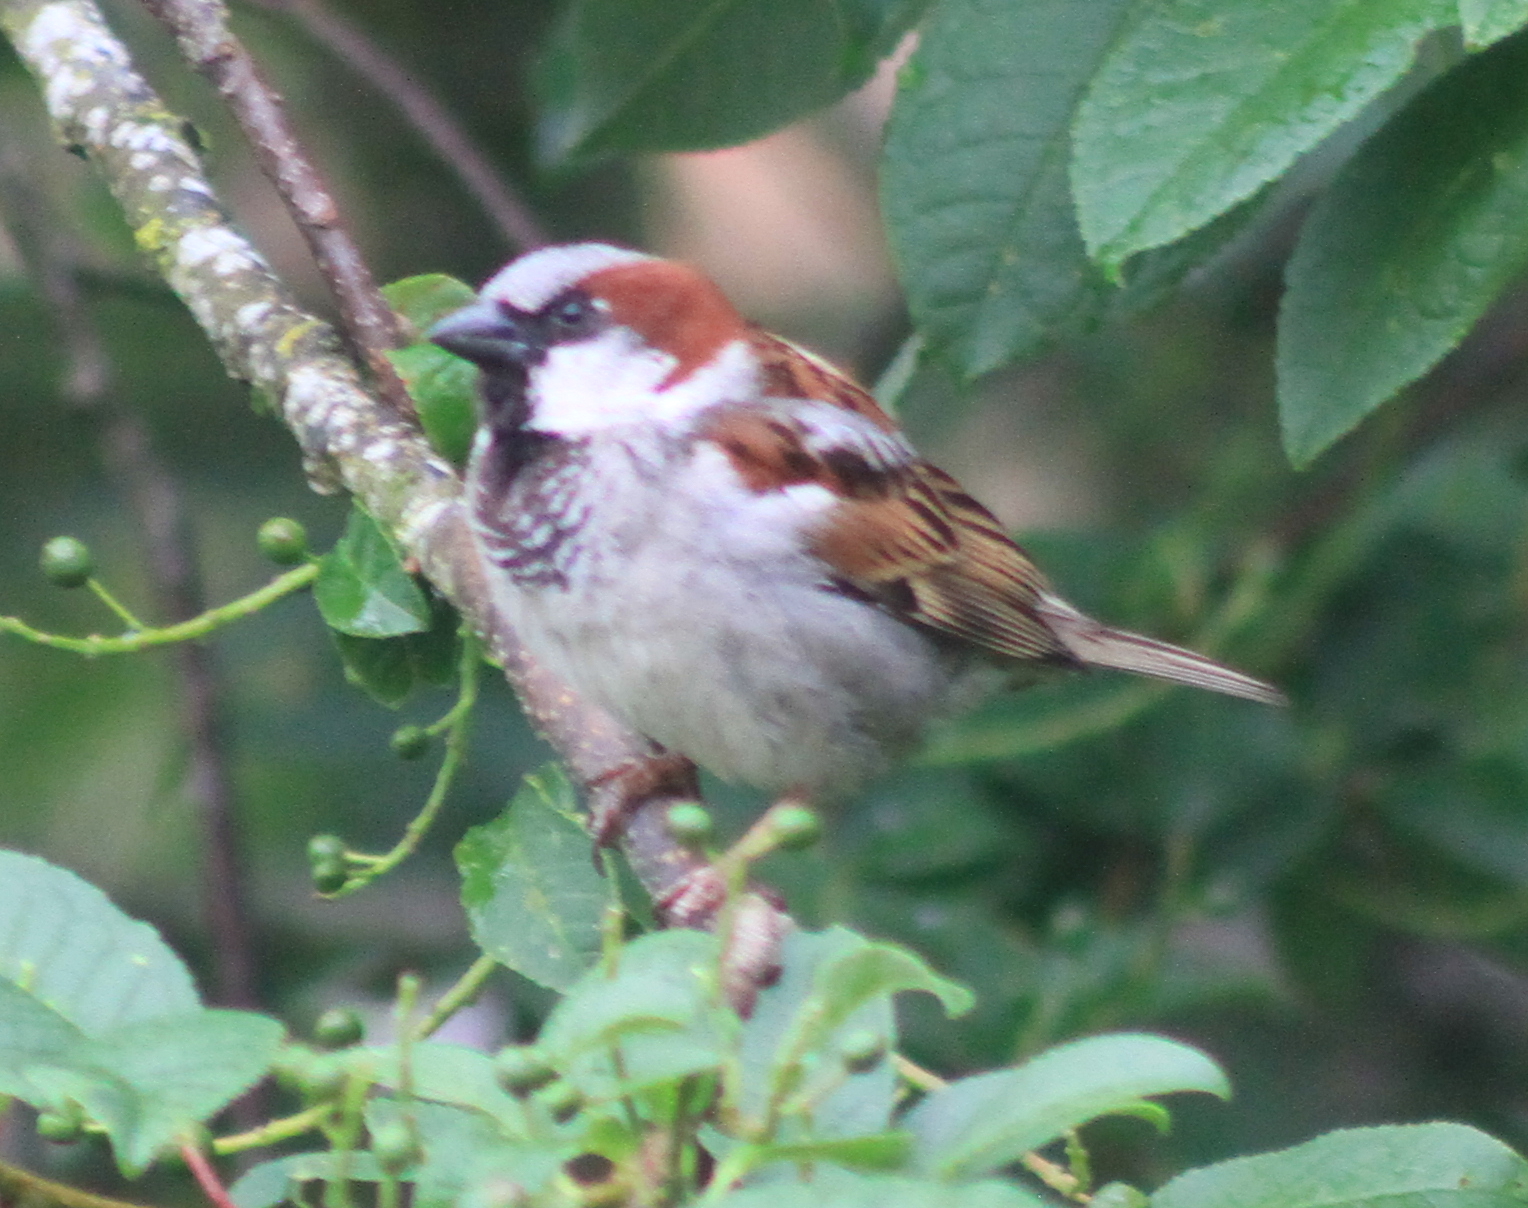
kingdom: Animalia
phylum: Chordata
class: Aves
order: Passeriformes
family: Passeridae
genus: Passer
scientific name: Passer domesticus
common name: House sparrow
